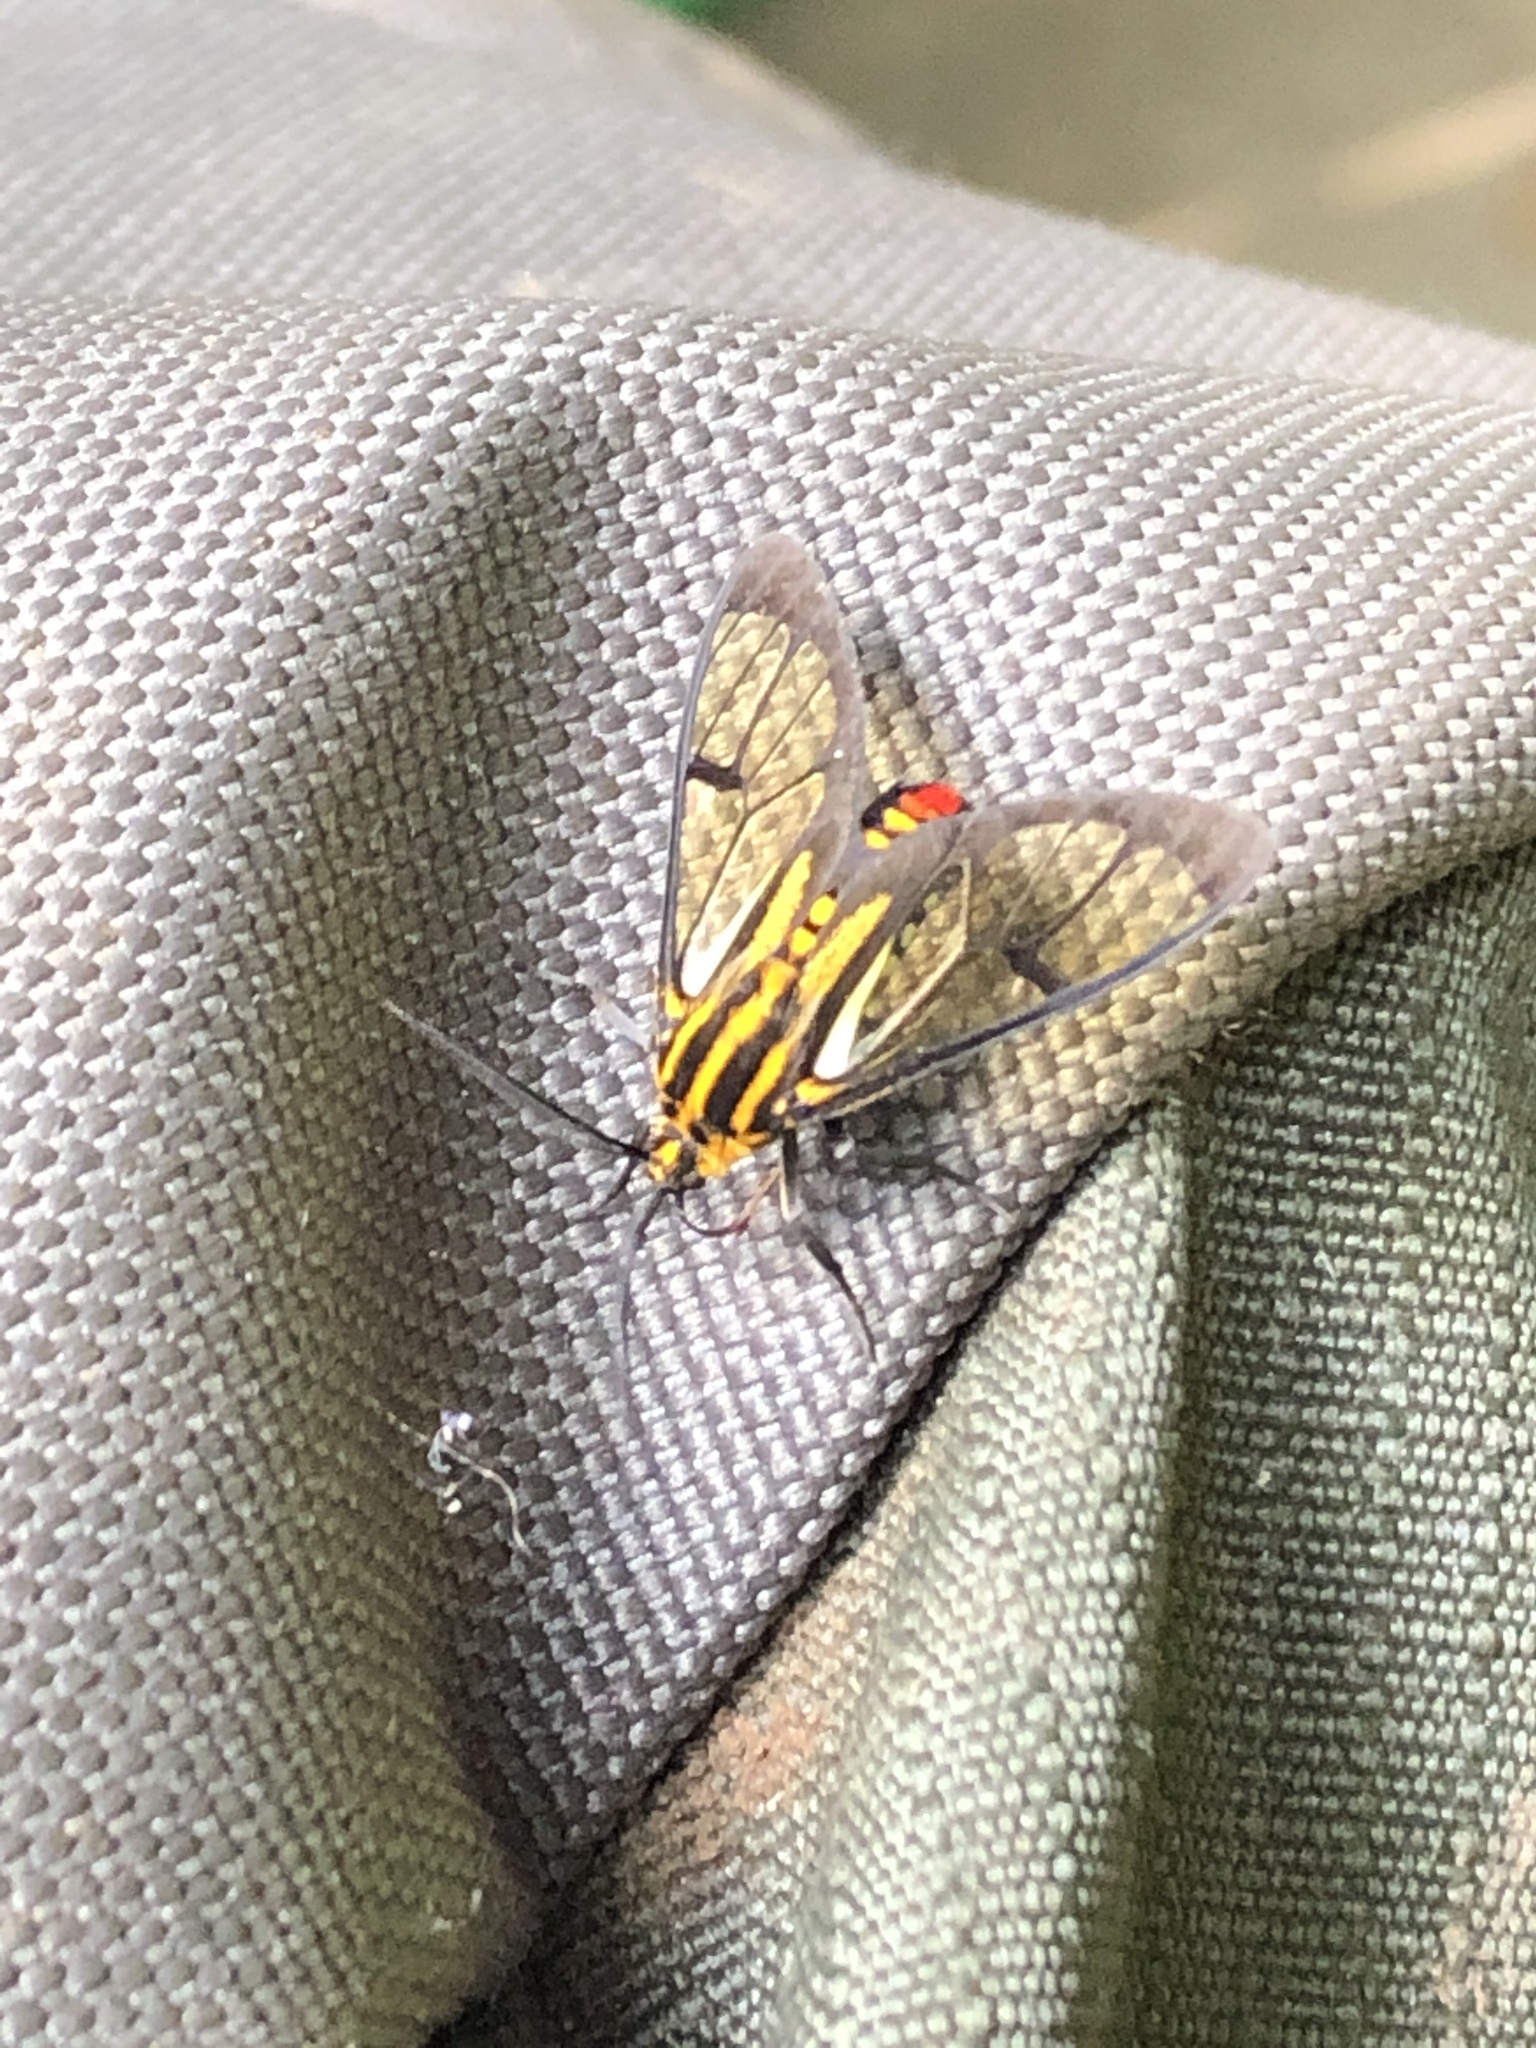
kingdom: Animalia
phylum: Arthropoda
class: Insecta
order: Lepidoptera
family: Erebidae
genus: Paraethria
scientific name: Paraethria flavosignata
